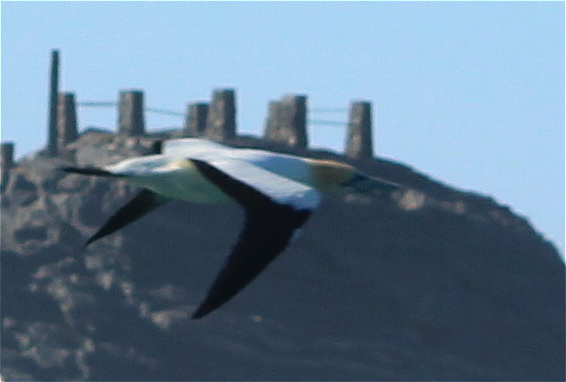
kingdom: Animalia
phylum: Chordata
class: Aves
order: Suliformes
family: Sulidae
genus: Morus
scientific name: Morus capensis
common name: Cape gannet
